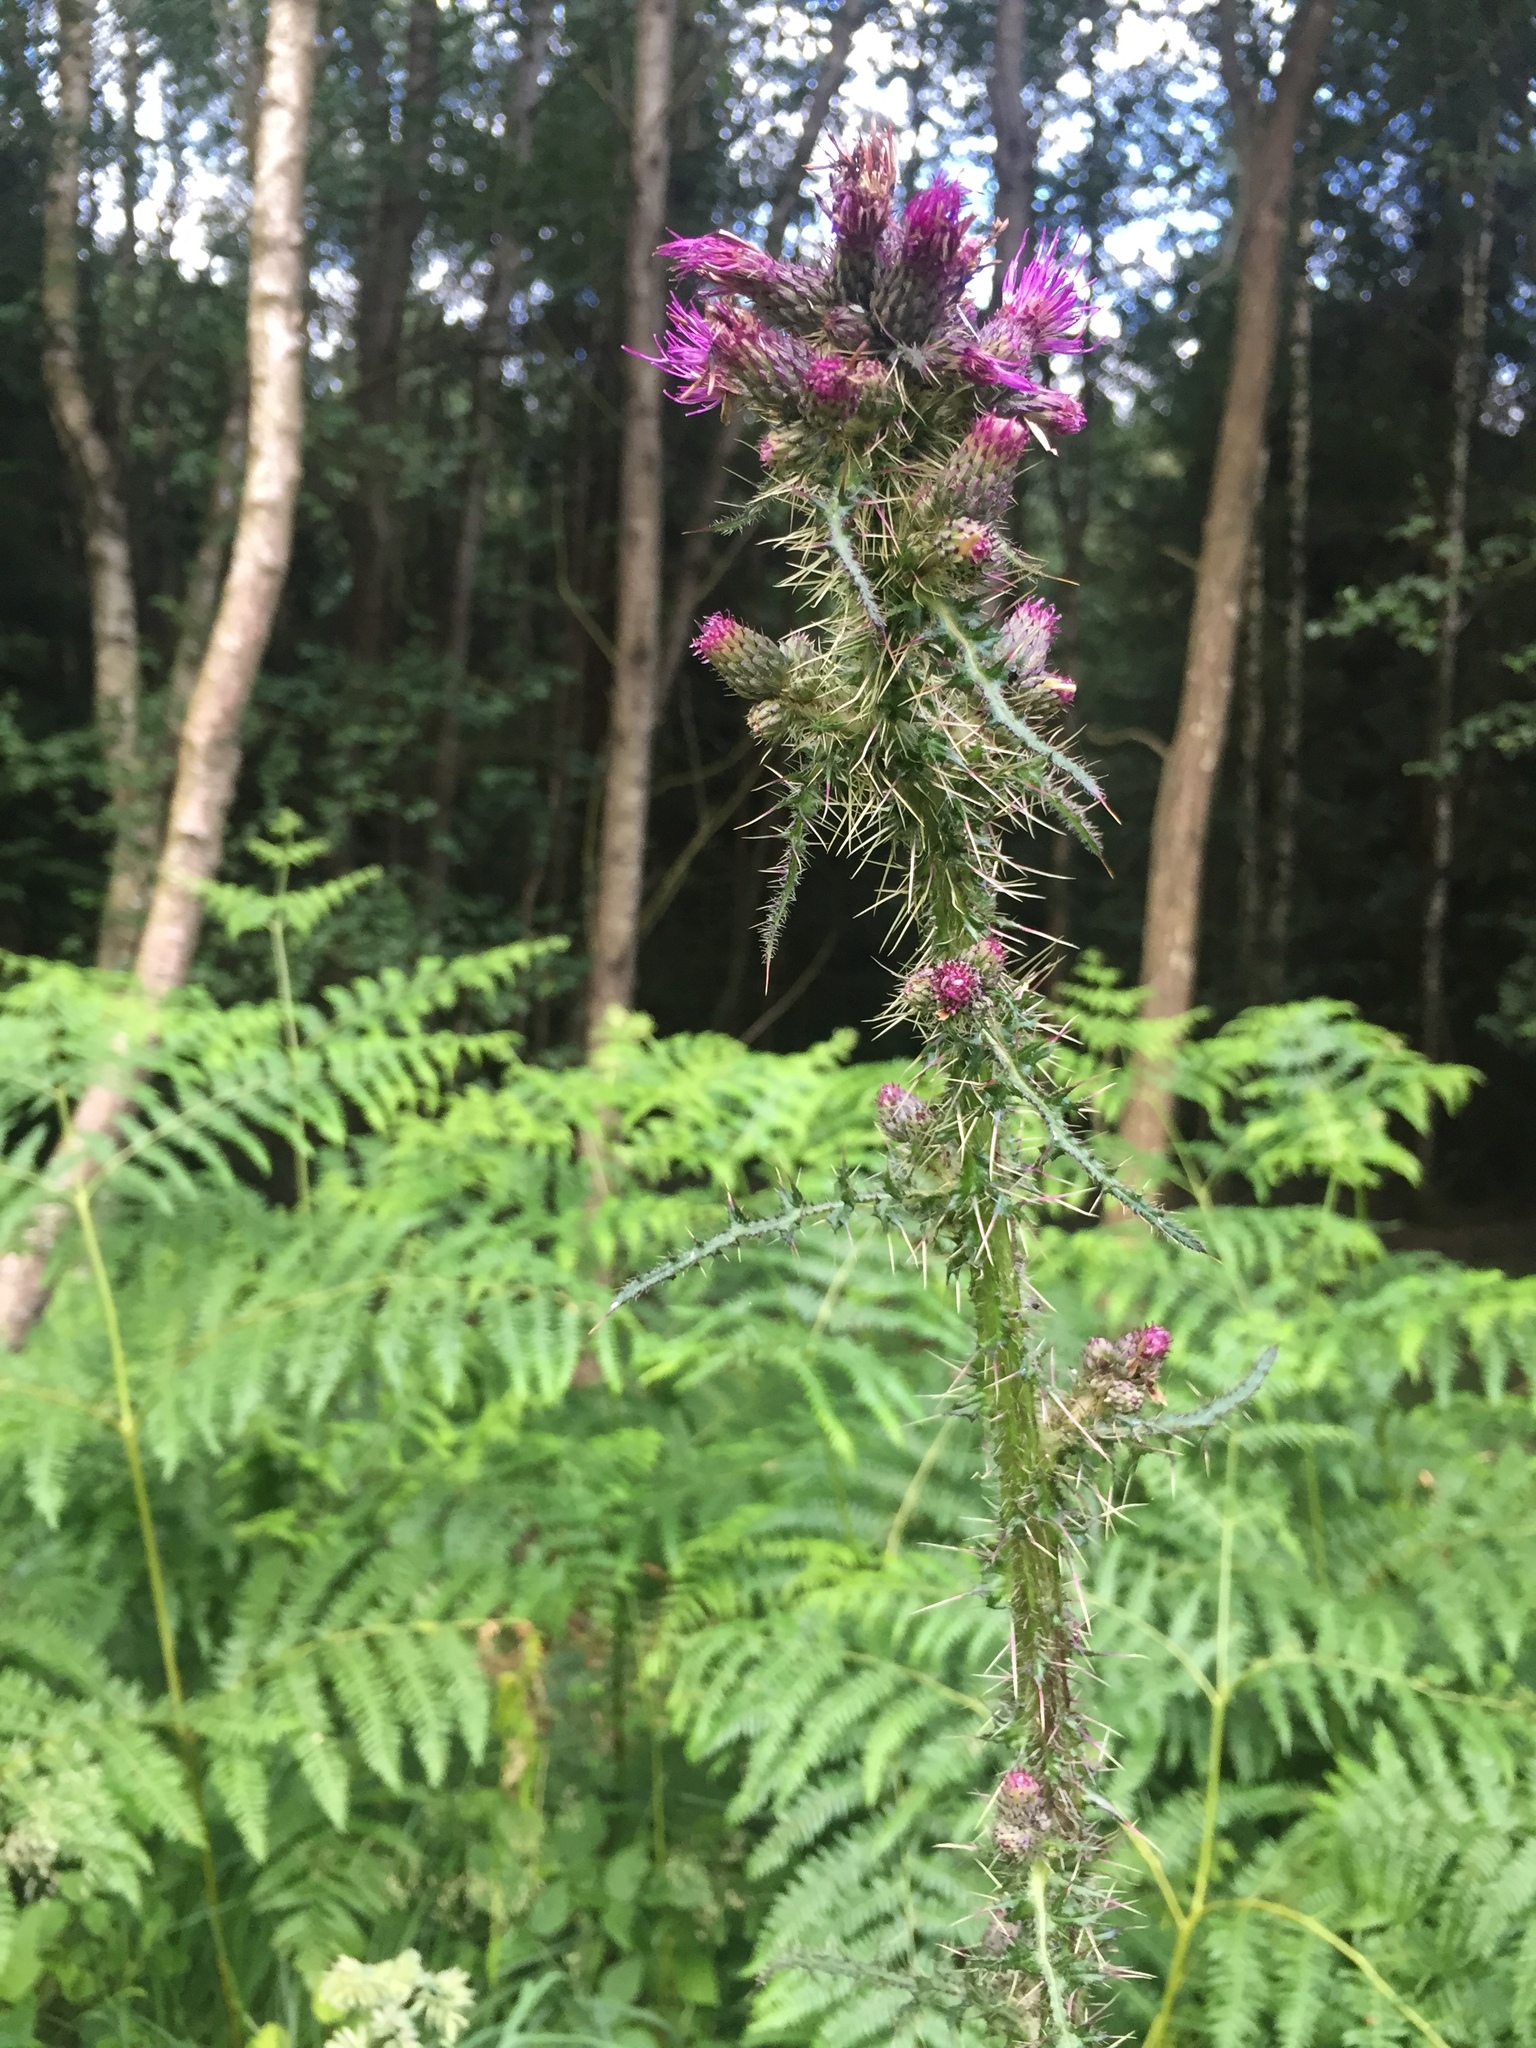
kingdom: Plantae
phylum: Tracheophyta
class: Magnoliopsida
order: Asterales
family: Asteraceae
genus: Cirsium
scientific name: Cirsium palustre
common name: Marsh thistle
